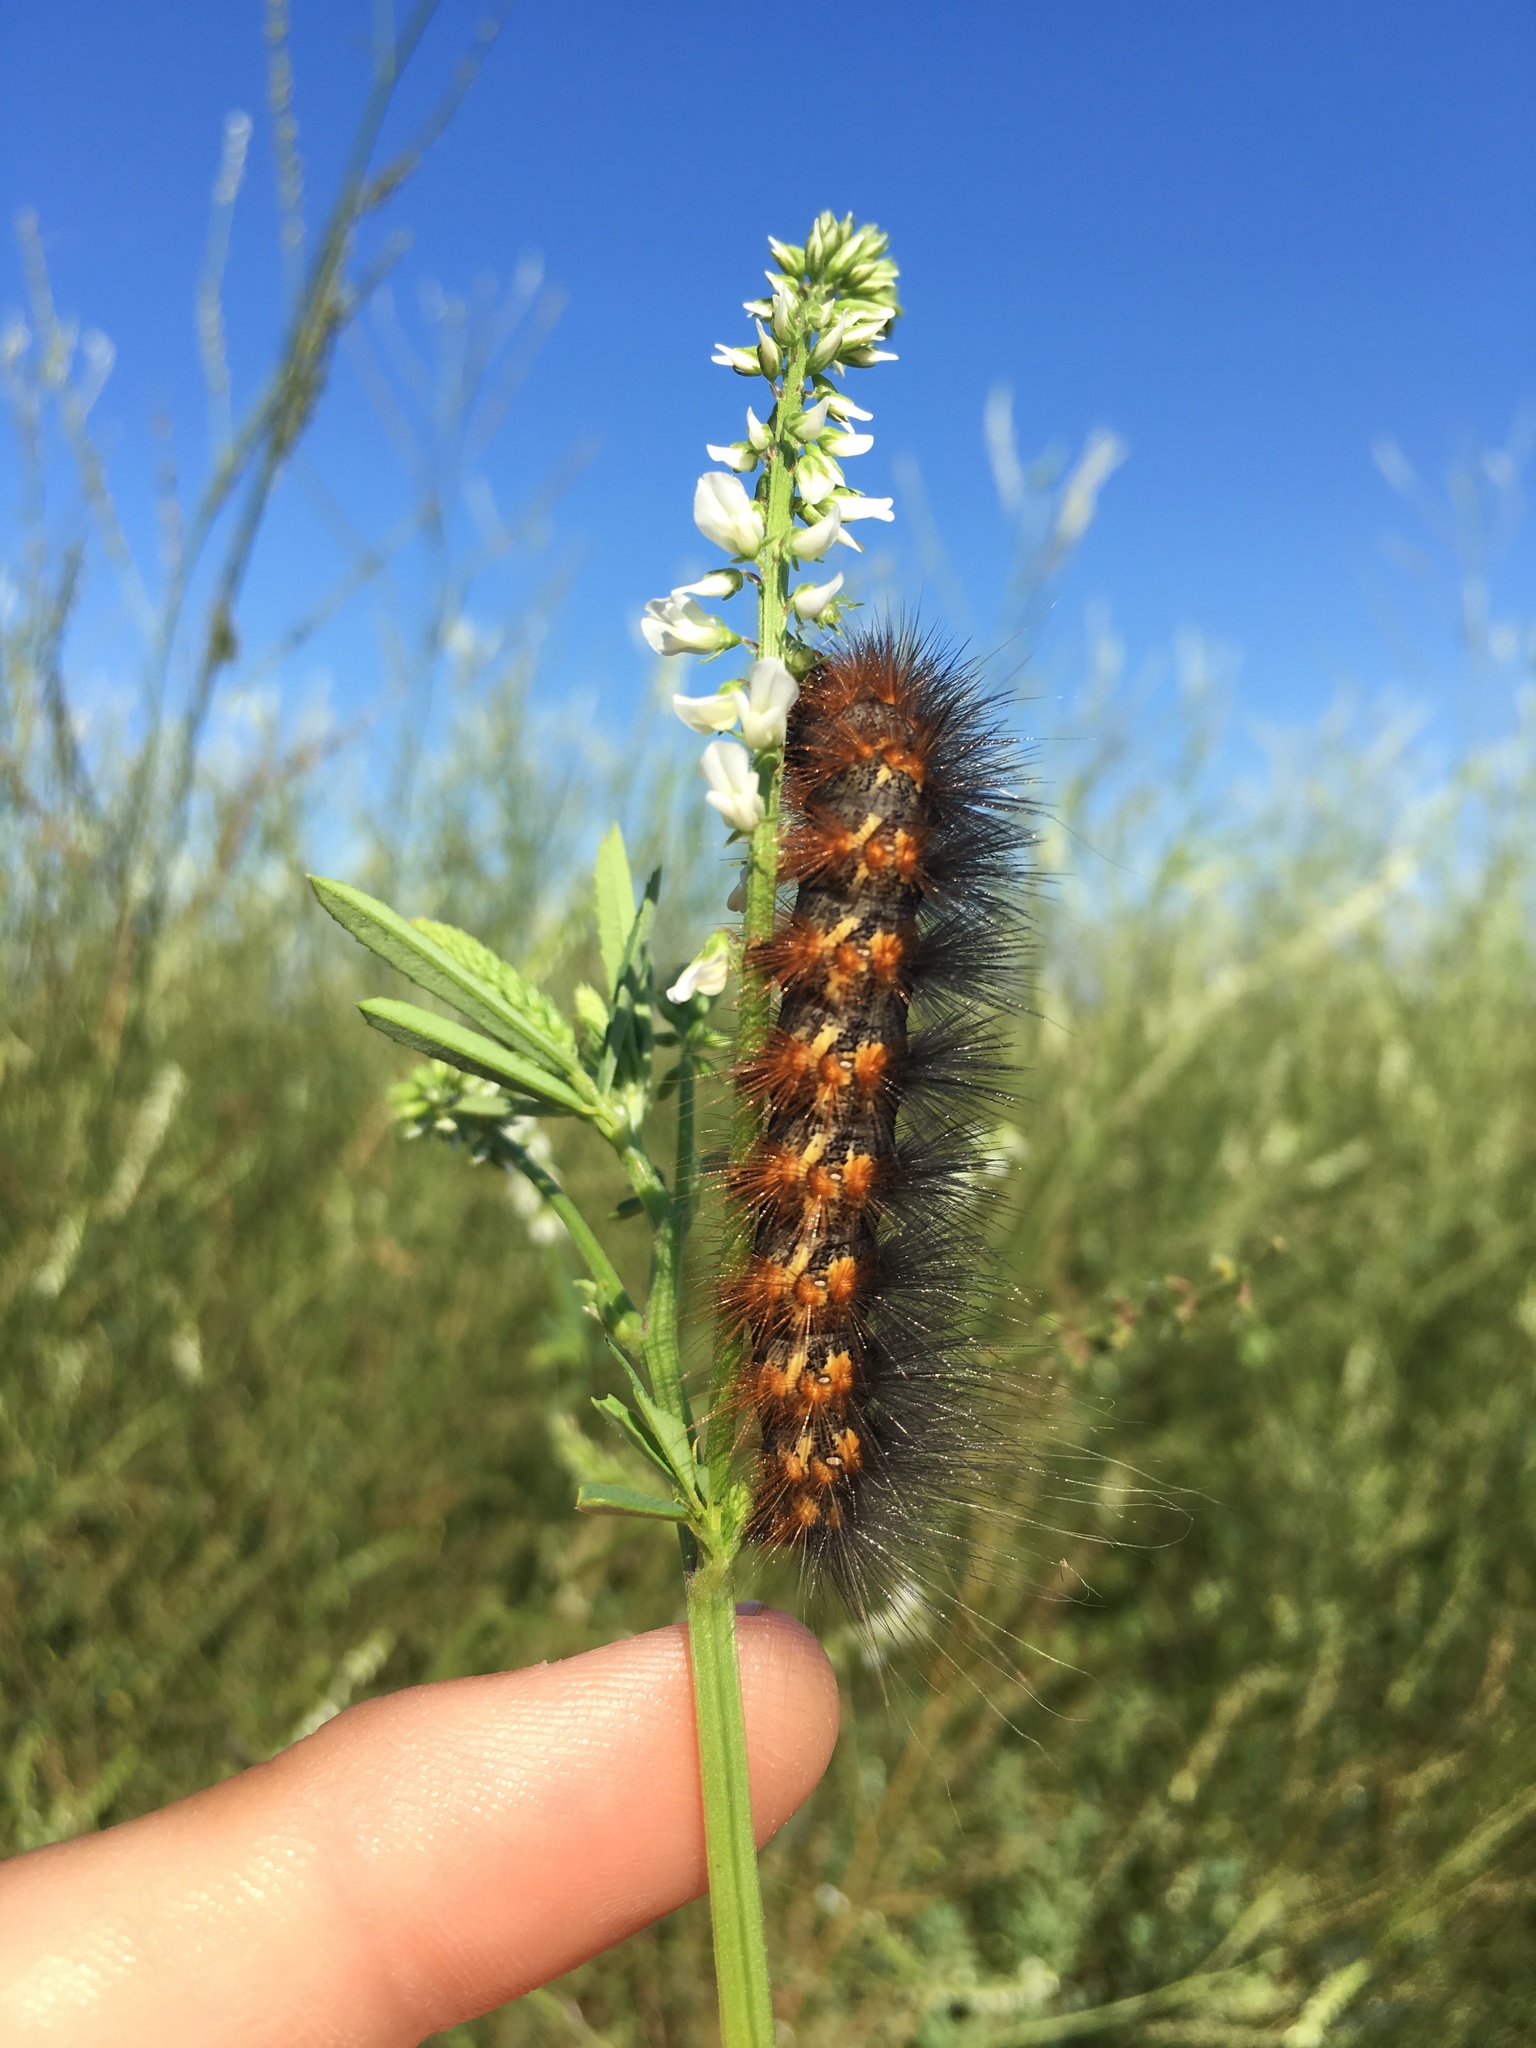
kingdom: Animalia
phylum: Arthropoda
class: Insecta
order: Lepidoptera
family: Erebidae
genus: Estigmene
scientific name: Estigmene acrea
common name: Salt marsh moth
